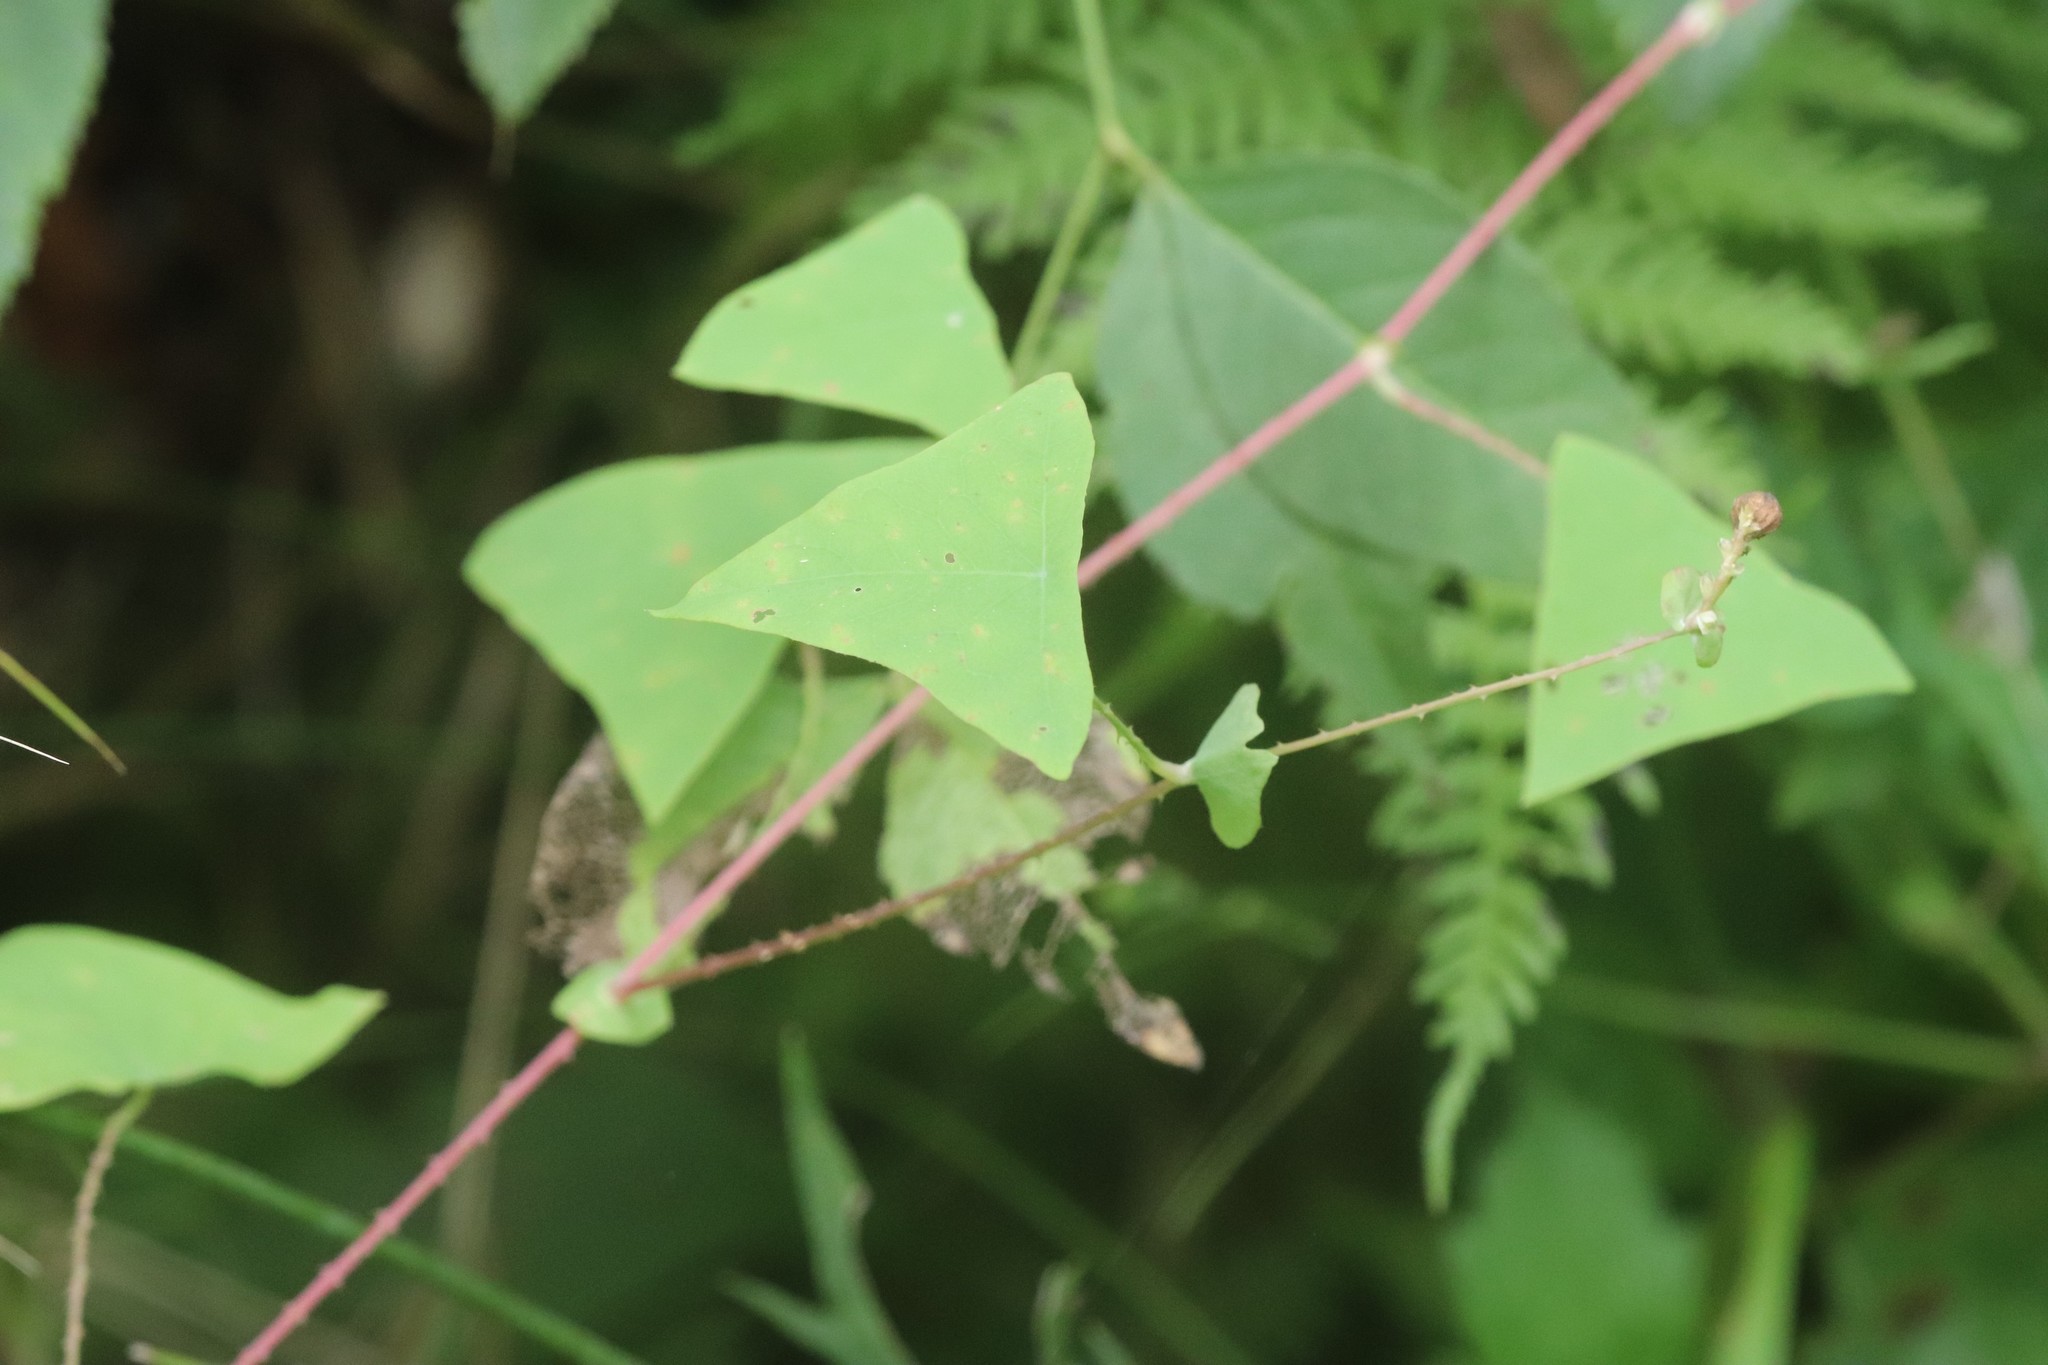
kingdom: Plantae
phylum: Tracheophyta
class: Magnoliopsida
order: Caryophyllales
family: Polygonaceae
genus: Persicaria
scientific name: Persicaria perfoliata
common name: Asiatic tearthumb
